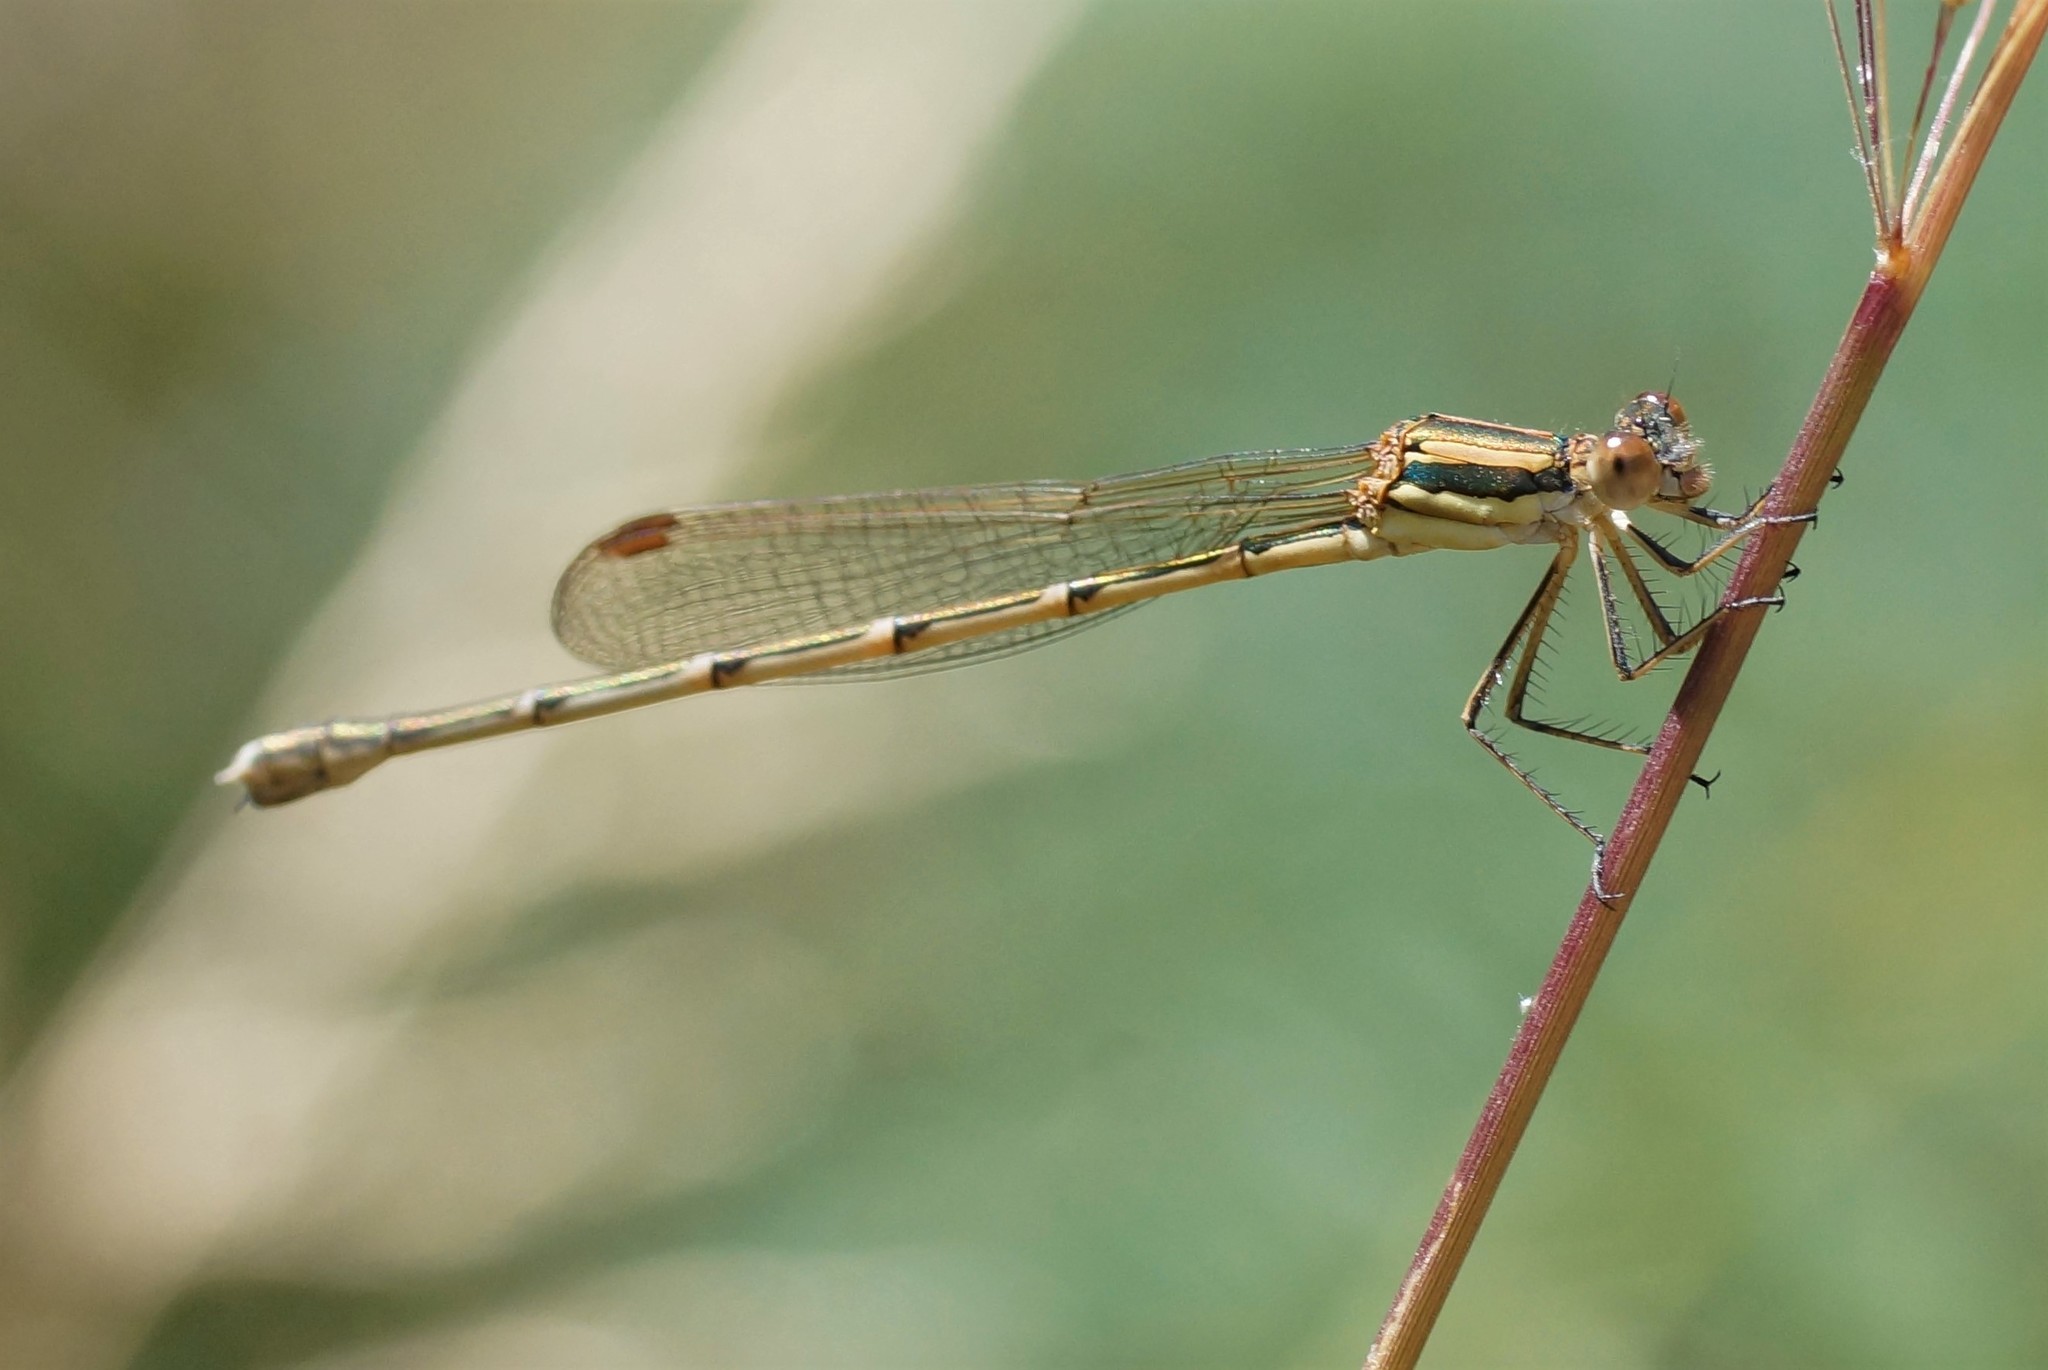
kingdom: Animalia
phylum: Arthropoda
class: Insecta
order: Odonata
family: Lestidae
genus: Austrolestes
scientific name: Austrolestes analis
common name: Slender ringtail
